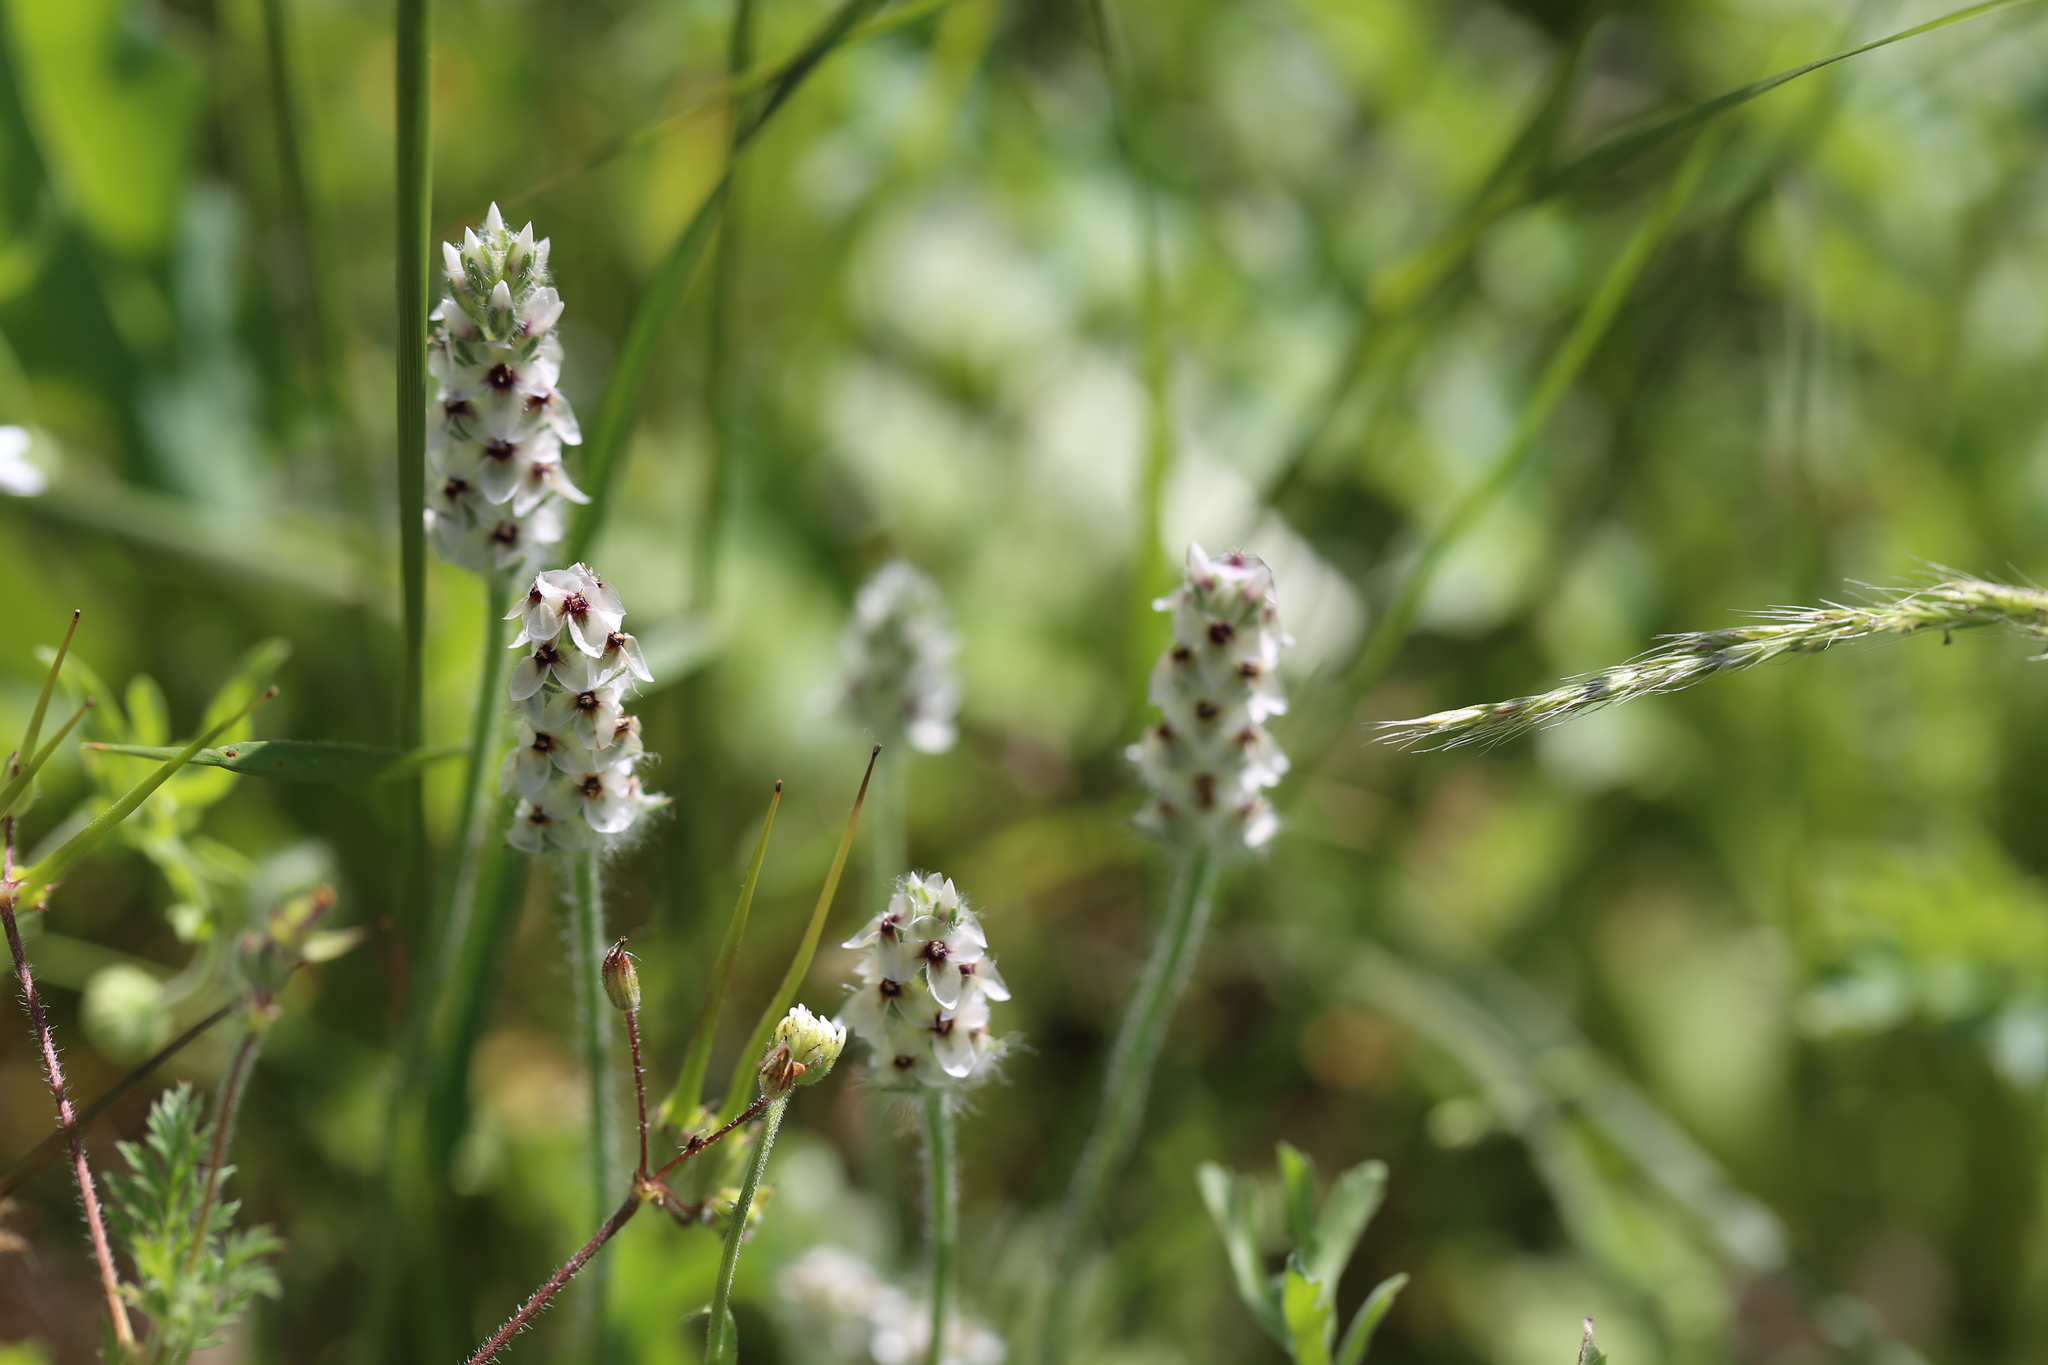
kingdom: Plantae
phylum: Tracheophyta
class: Magnoliopsida
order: Lamiales
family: Plantaginaceae
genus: Plantago
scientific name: Plantago helleri
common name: Heller's plantain
